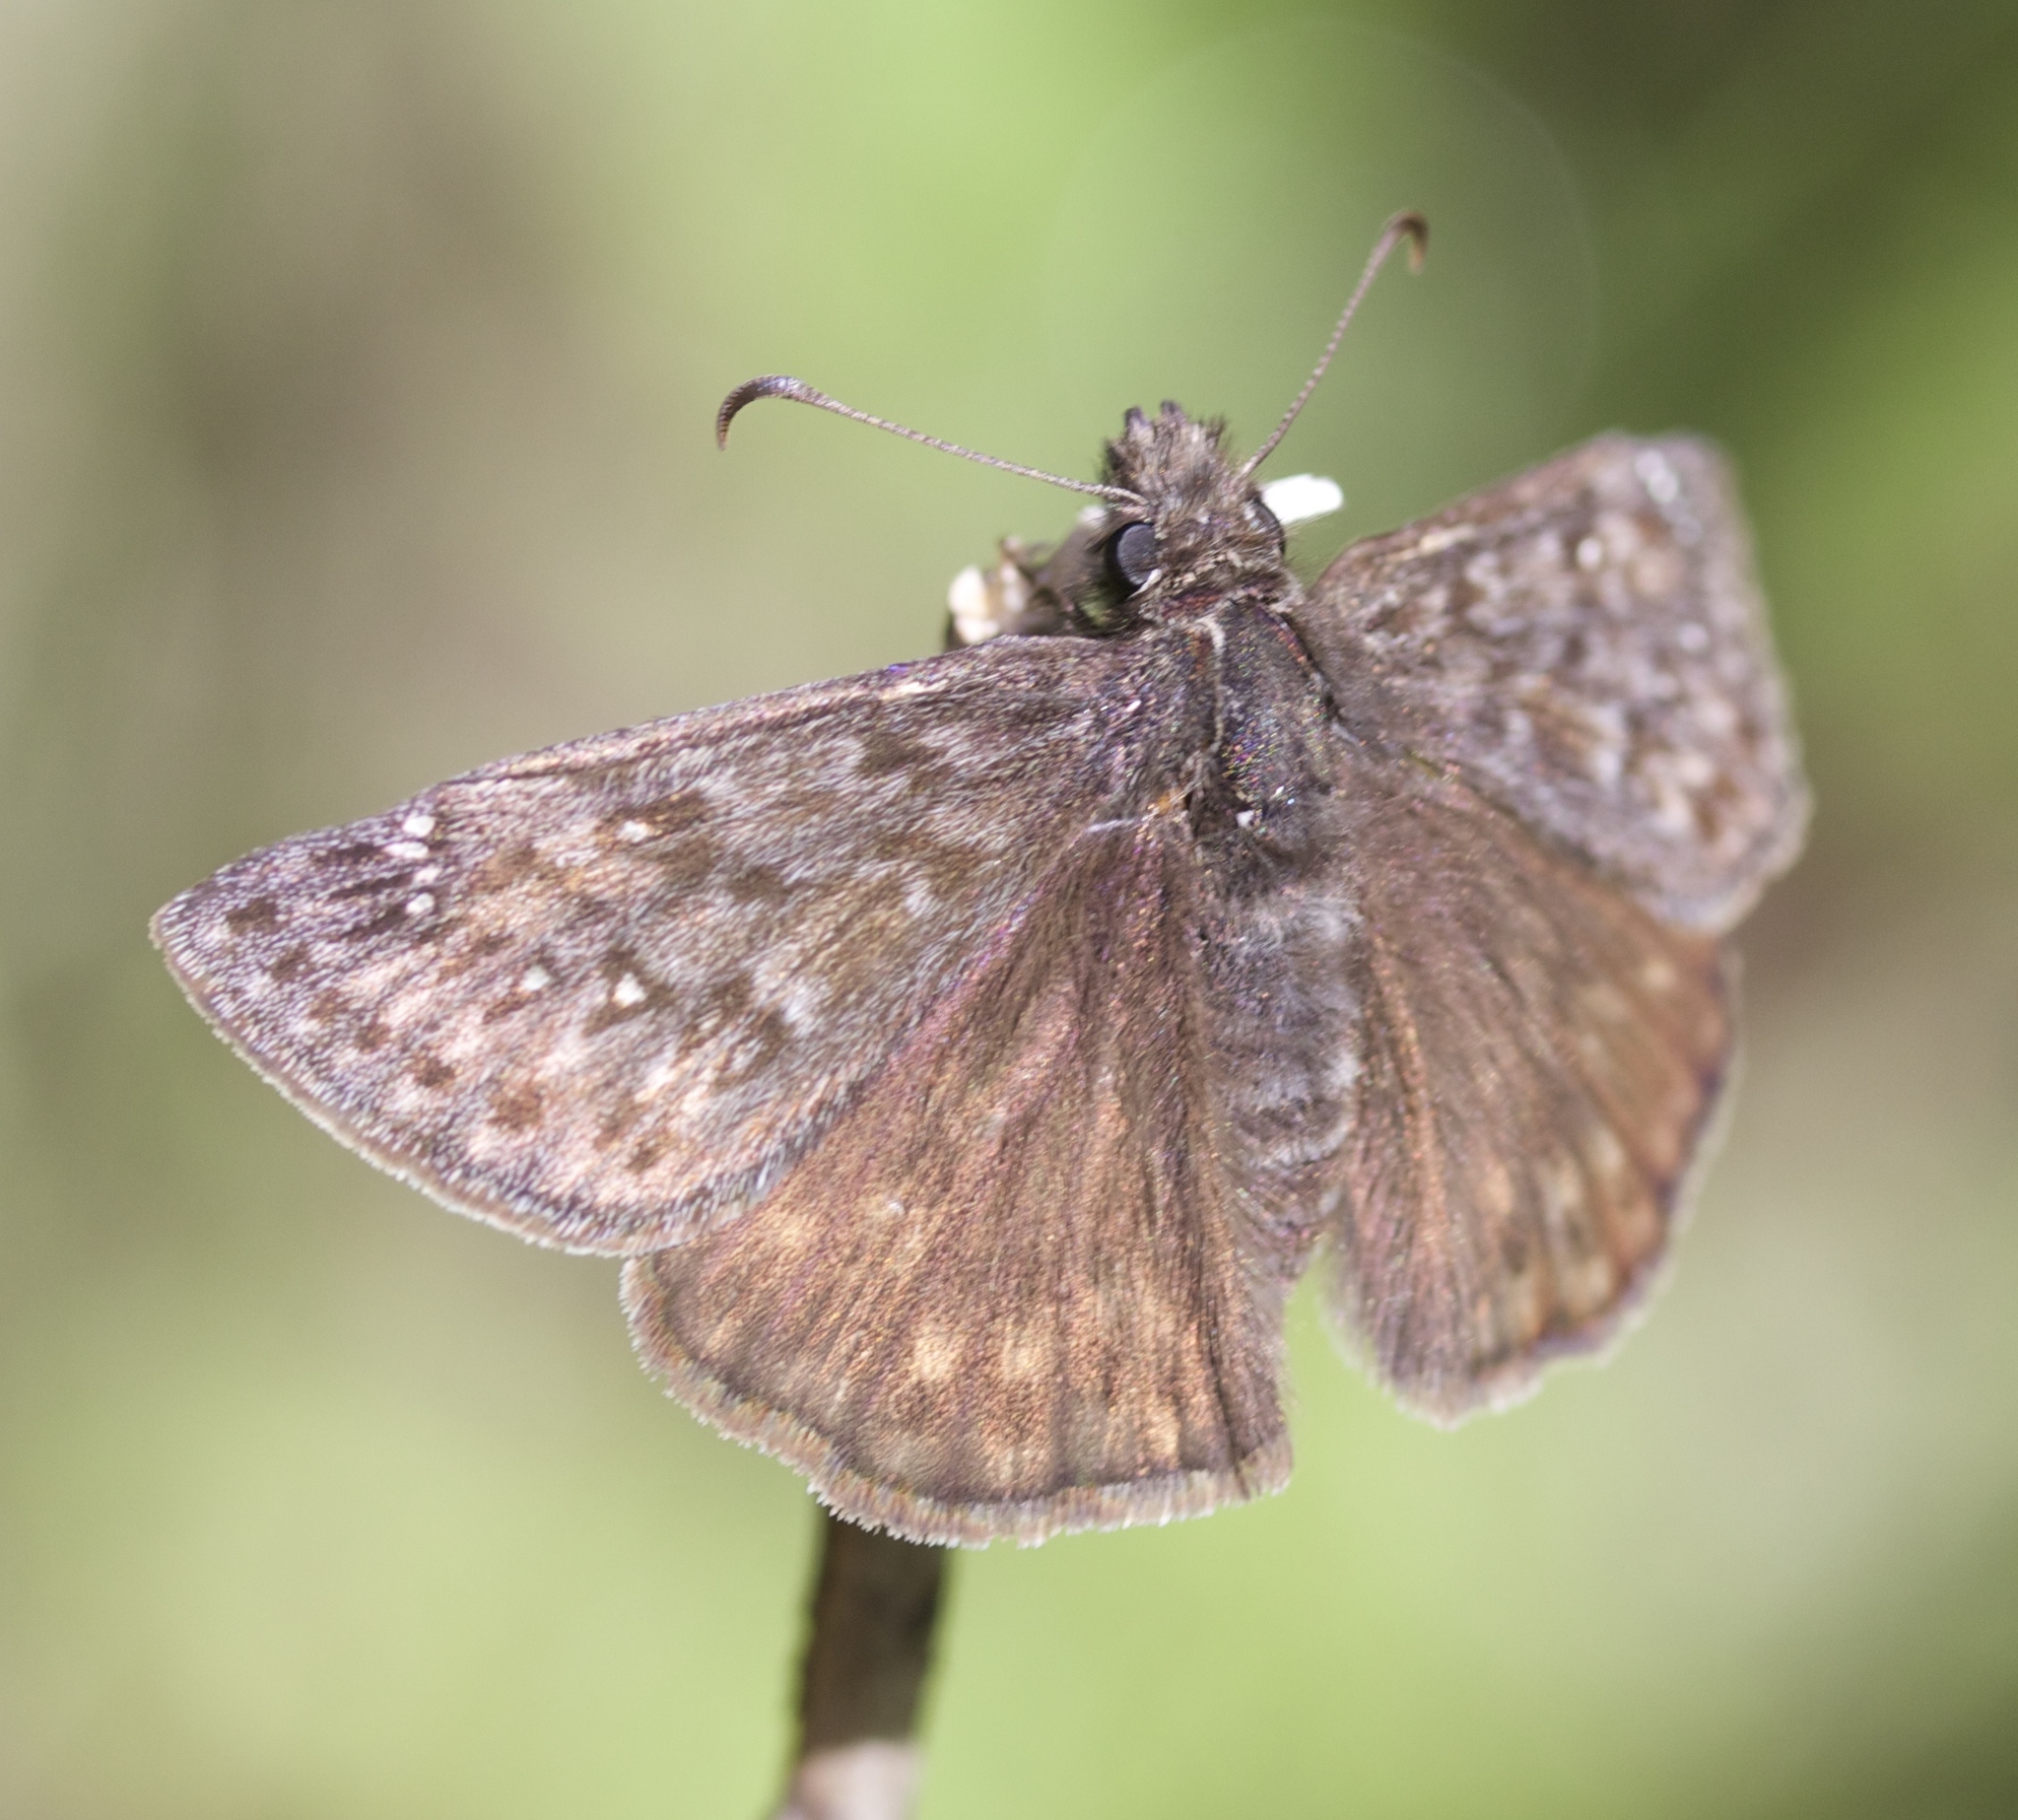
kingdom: Animalia
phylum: Arthropoda
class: Insecta
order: Lepidoptera
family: Hesperiidae
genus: Erynnis
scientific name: Erynnis propertius
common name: Propertius duskywing
